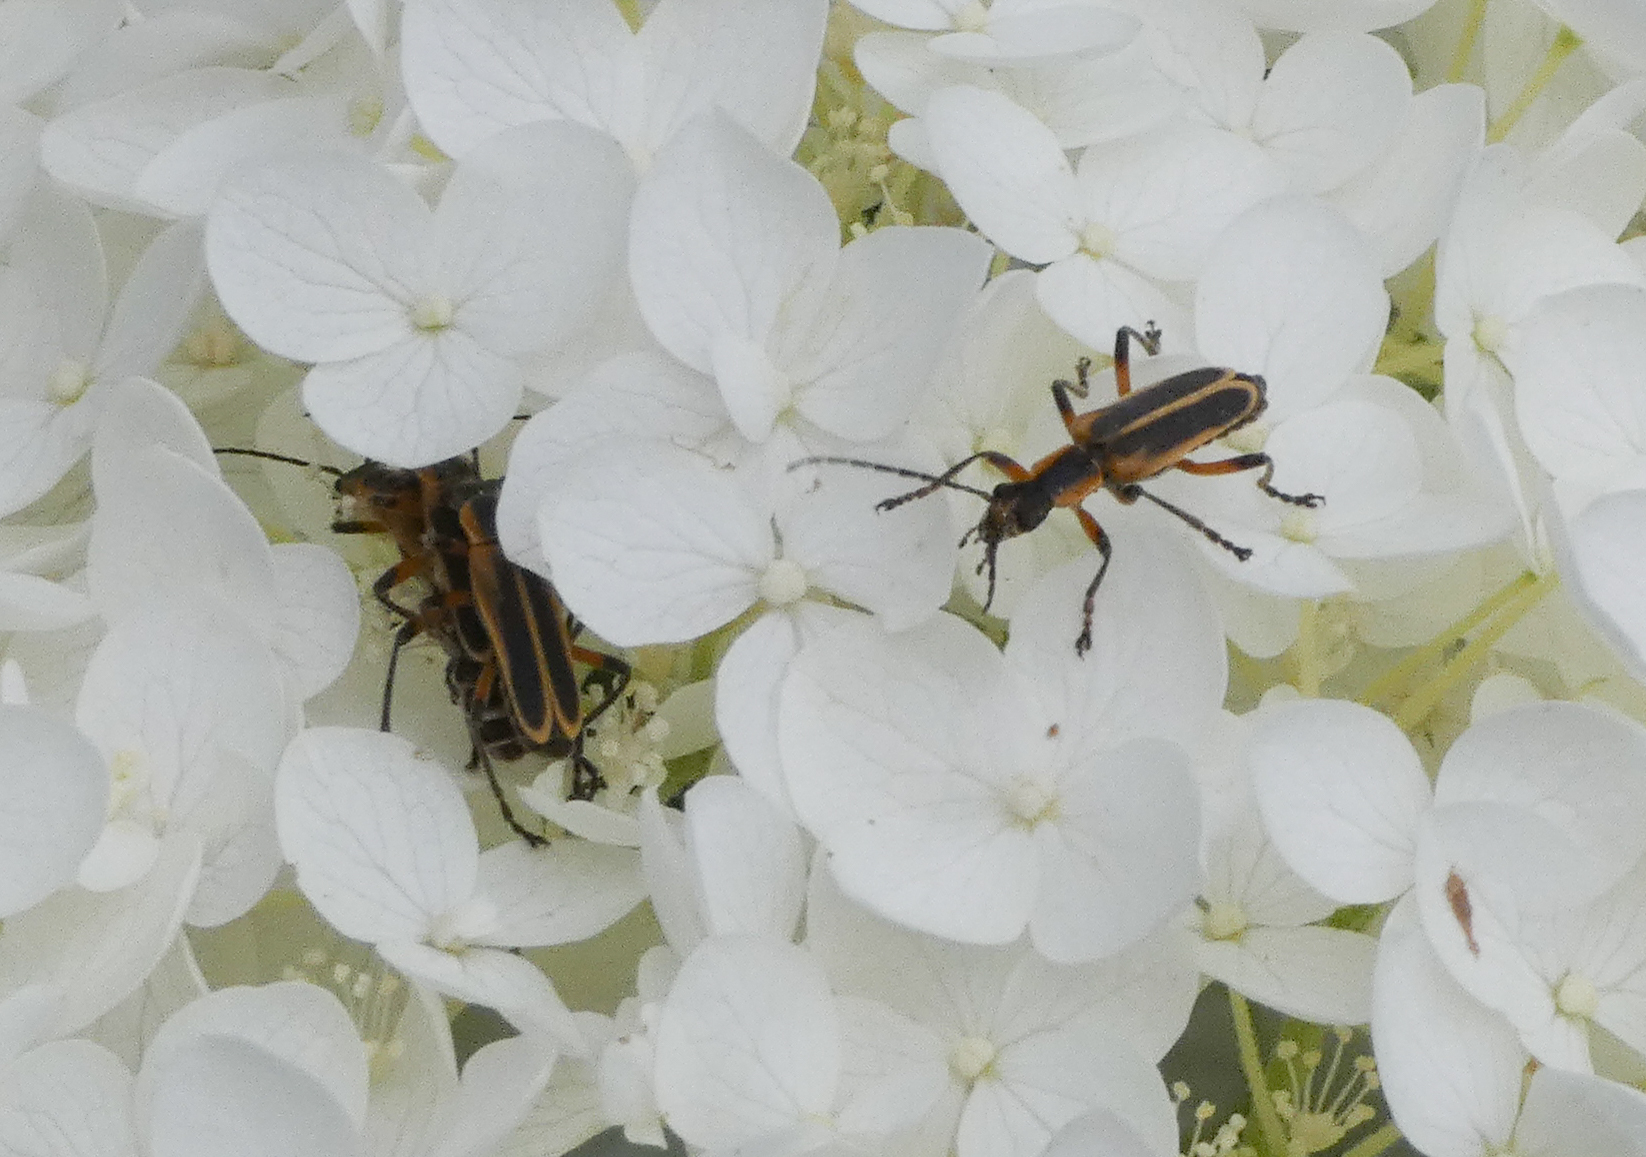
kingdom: Animalia
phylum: Arthropoda
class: Insecta
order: Coleoptera
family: Cantharidae
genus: Chauliognathus
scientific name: Chauliognathus marginatus
